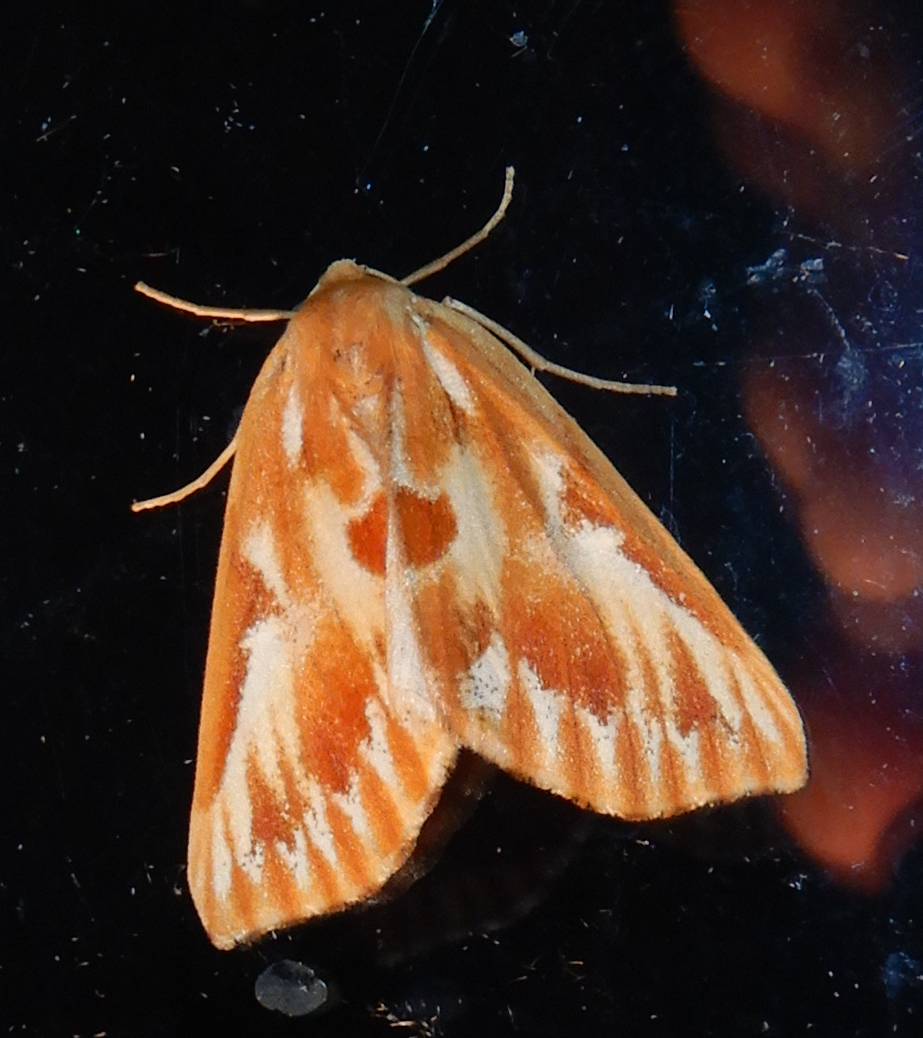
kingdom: Animalia
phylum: Arthropoda
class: Insecta
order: Lepidoptera
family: Geometridae
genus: Caripeta
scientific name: Caripeta piniata
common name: Northern pine looper moth
